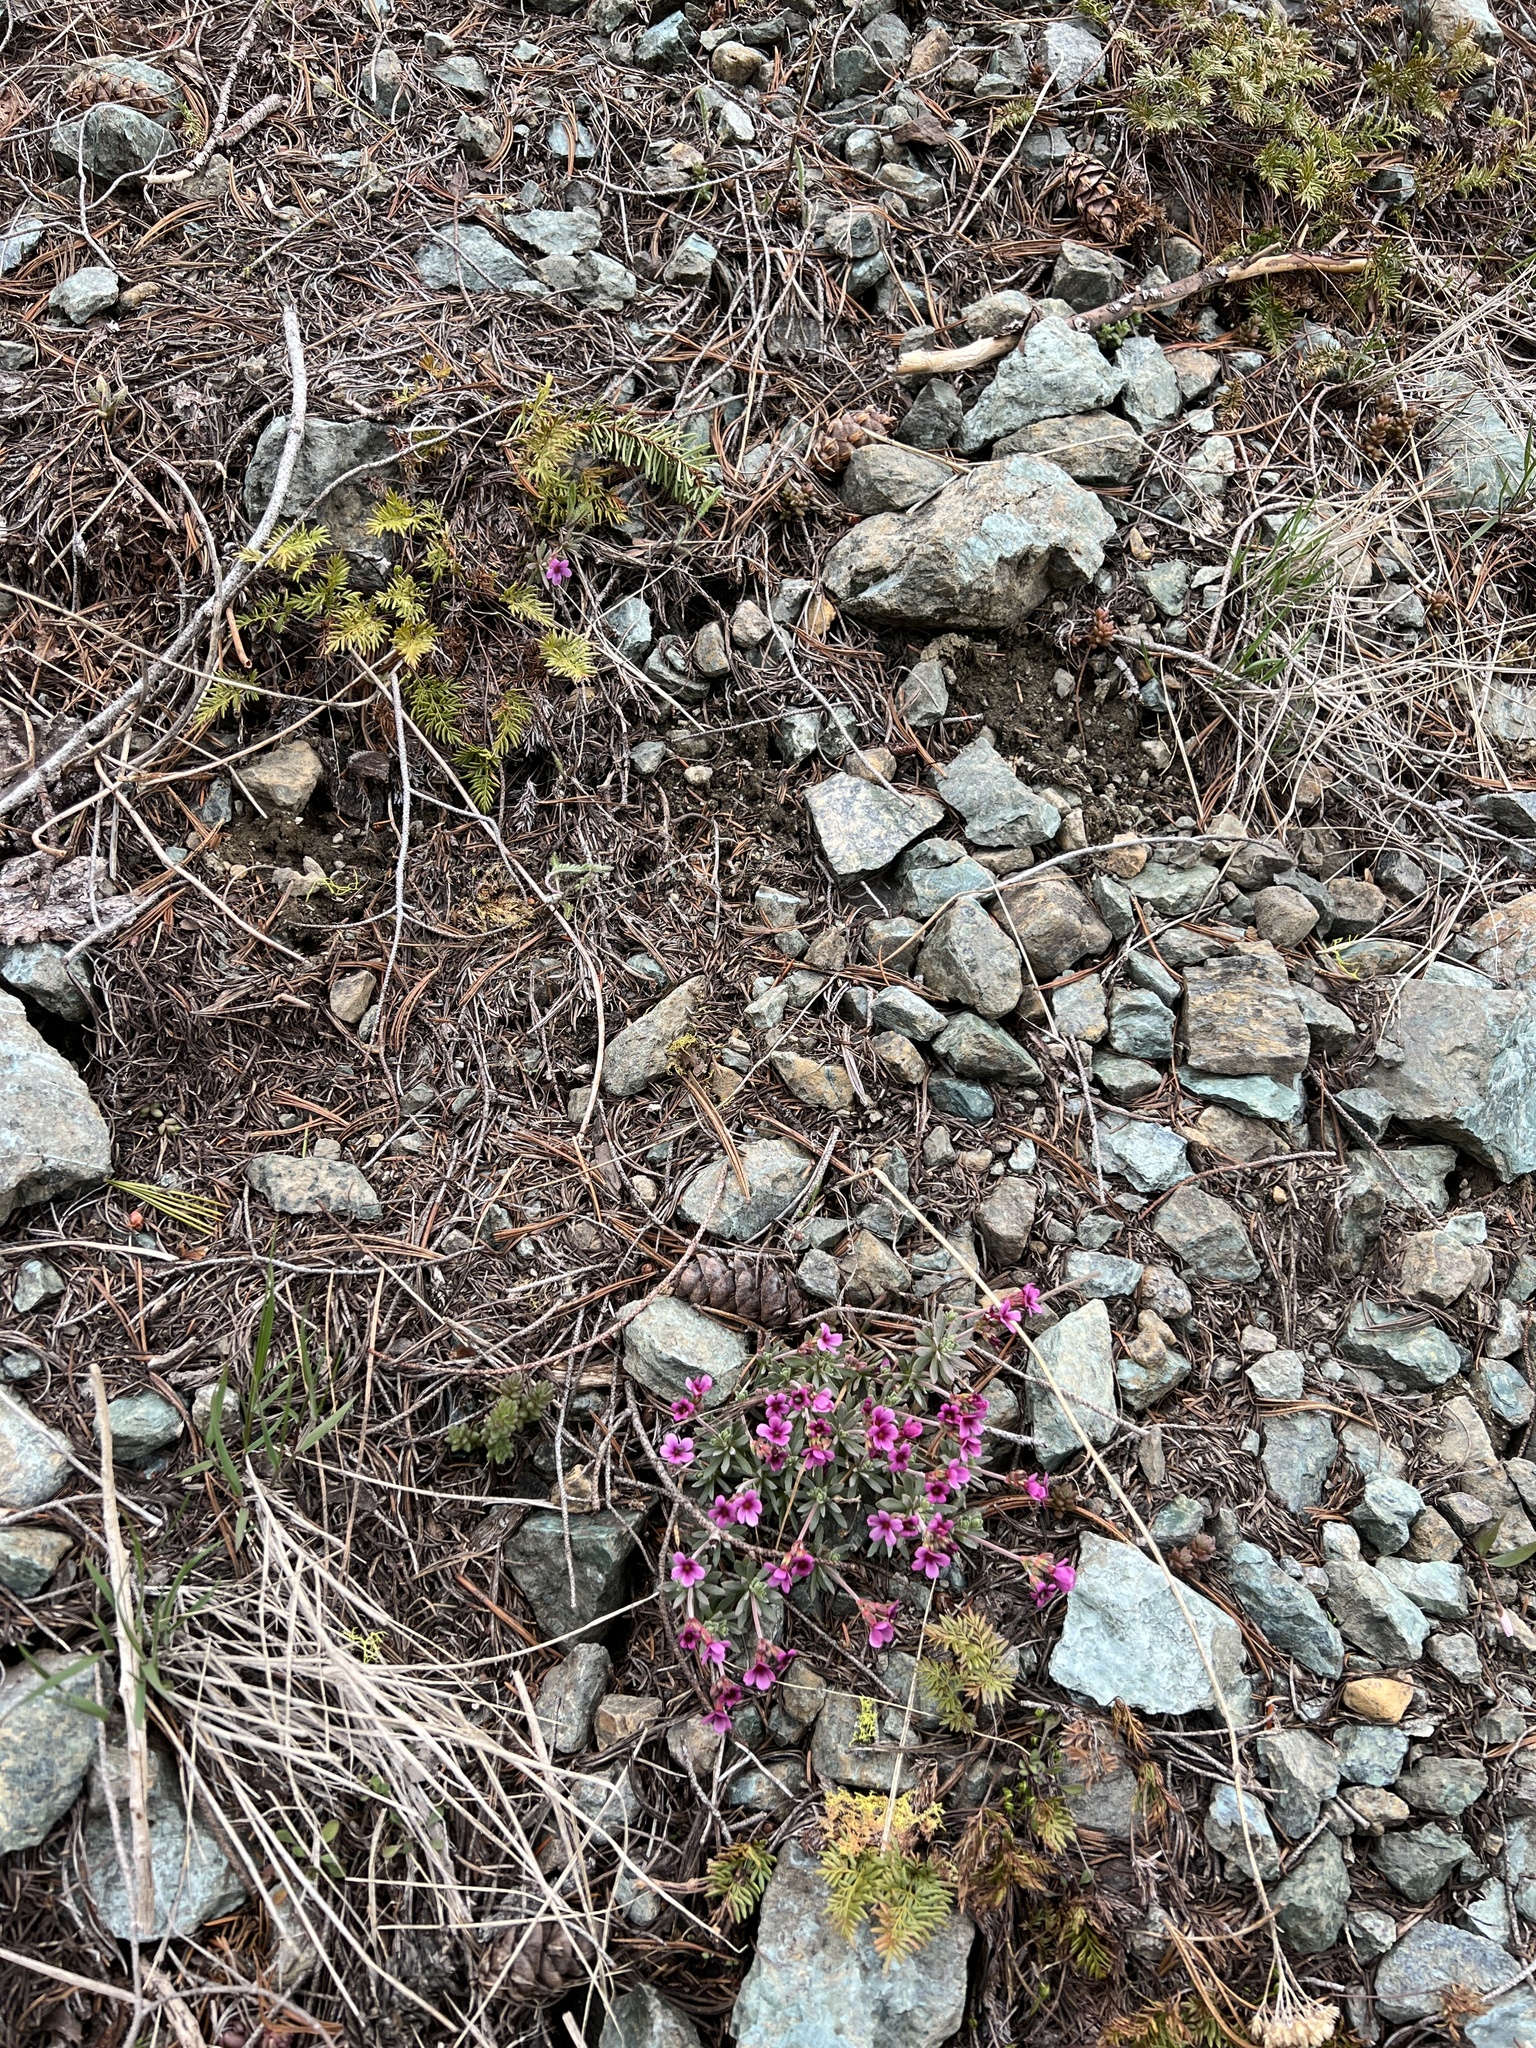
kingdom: Plantae
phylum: Tracheophyta
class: Magnoliopsida
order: Ericales
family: Primulaceae
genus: Androsace
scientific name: Androsace nivalis
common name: Snow dwarf-primrose
